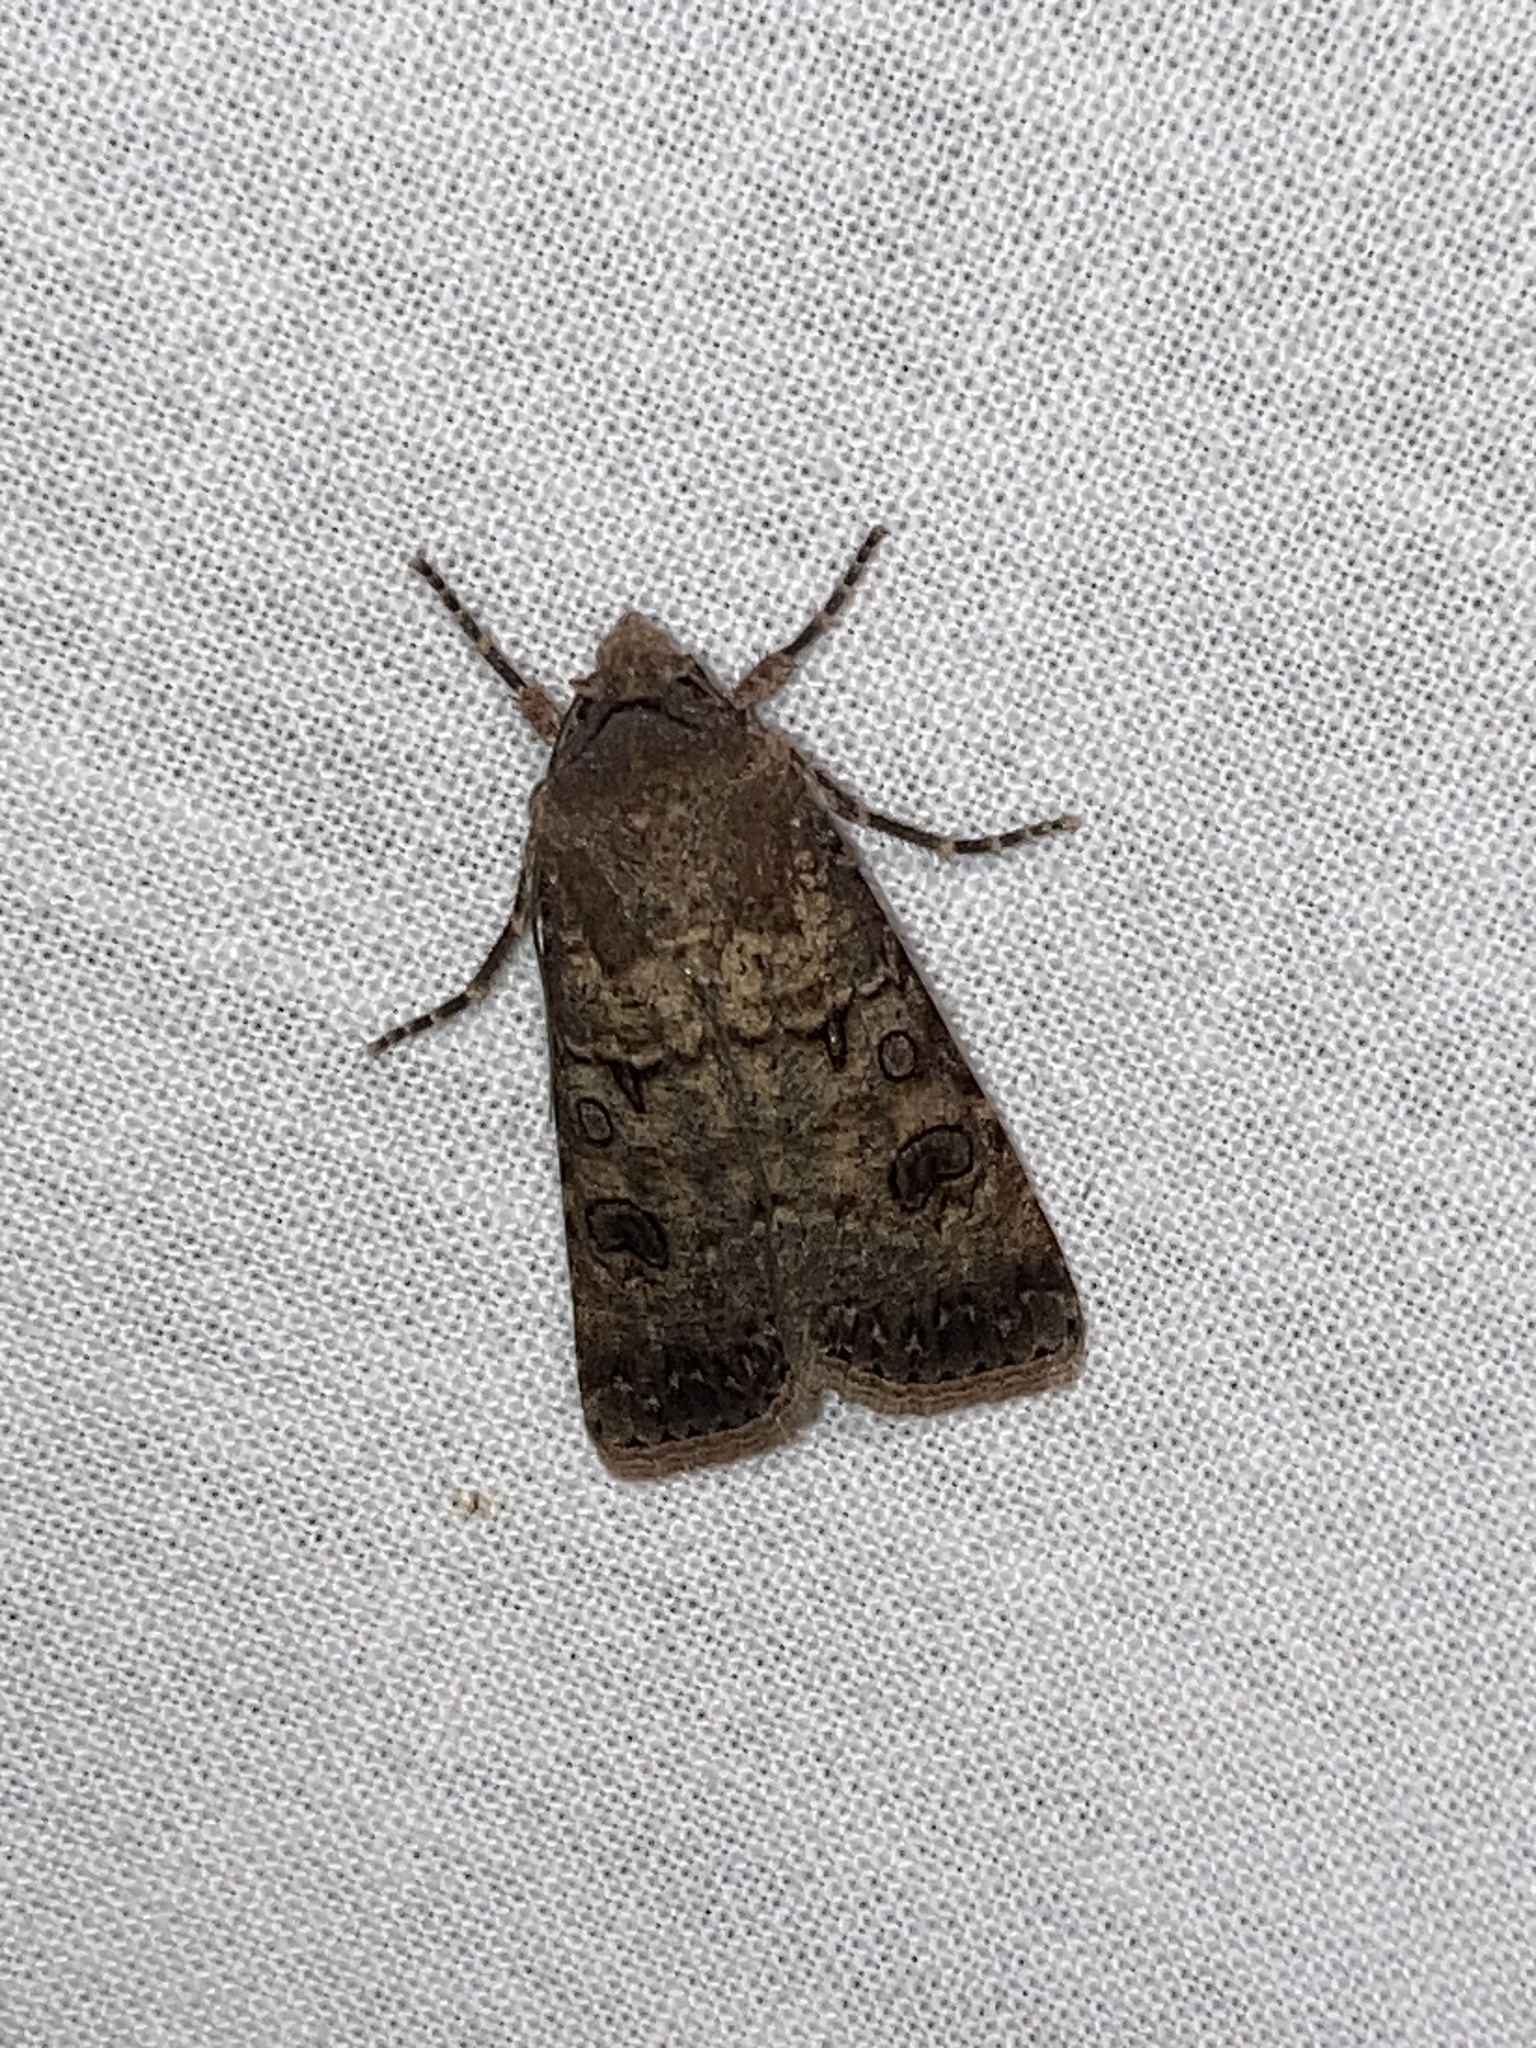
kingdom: Animalia
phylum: Arthropoda
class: Insecta
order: Lepidoptera
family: Noctuidae
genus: Agrotis
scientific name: Agrotis segetum
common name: Turnip moth
